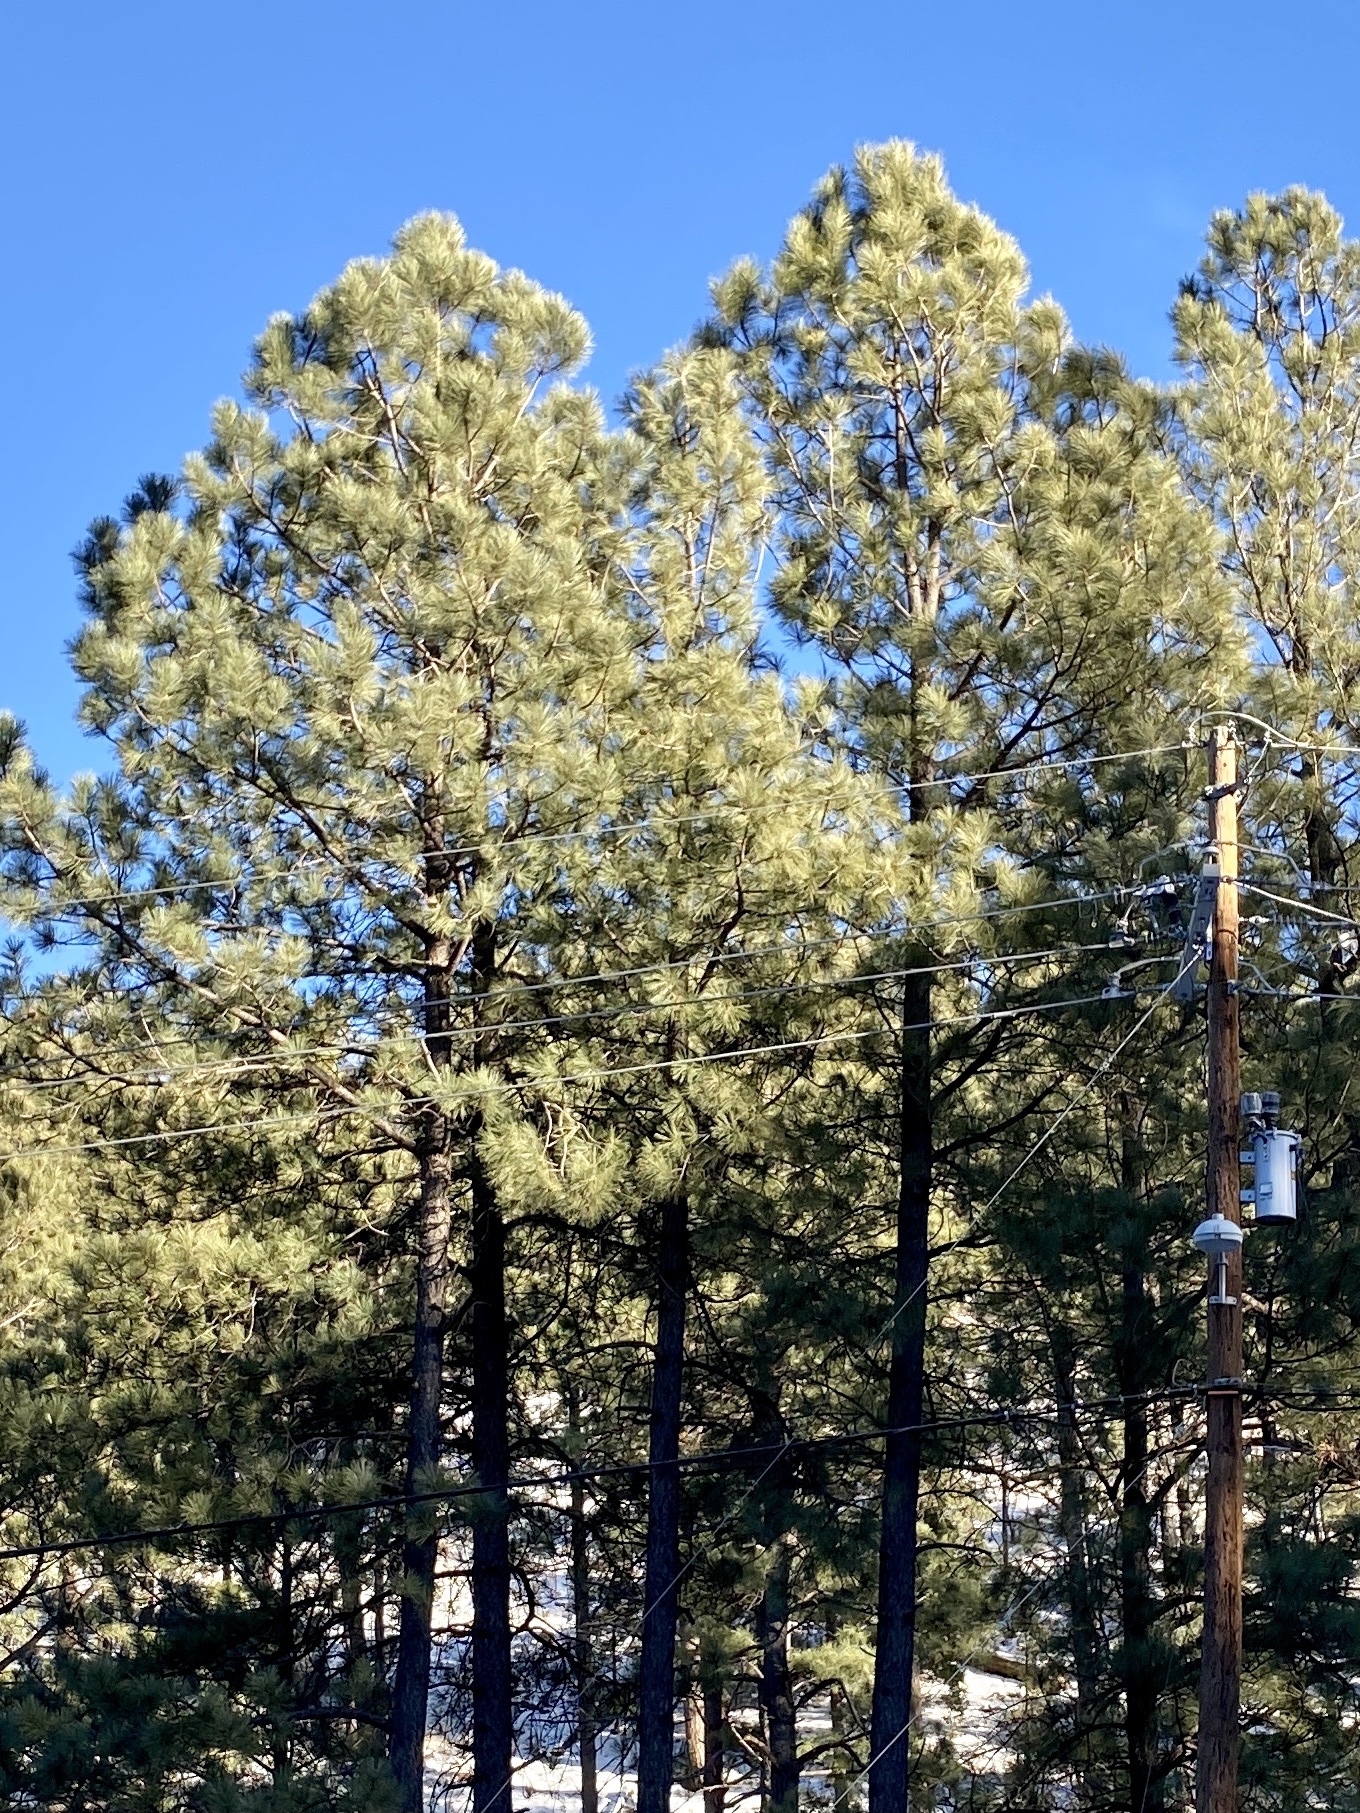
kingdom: Plantae
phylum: Tracheophyta
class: Pinopsida
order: Pinales
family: Pinaceae
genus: Pinus
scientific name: Pinus ponderosa
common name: Western yellow-pine
